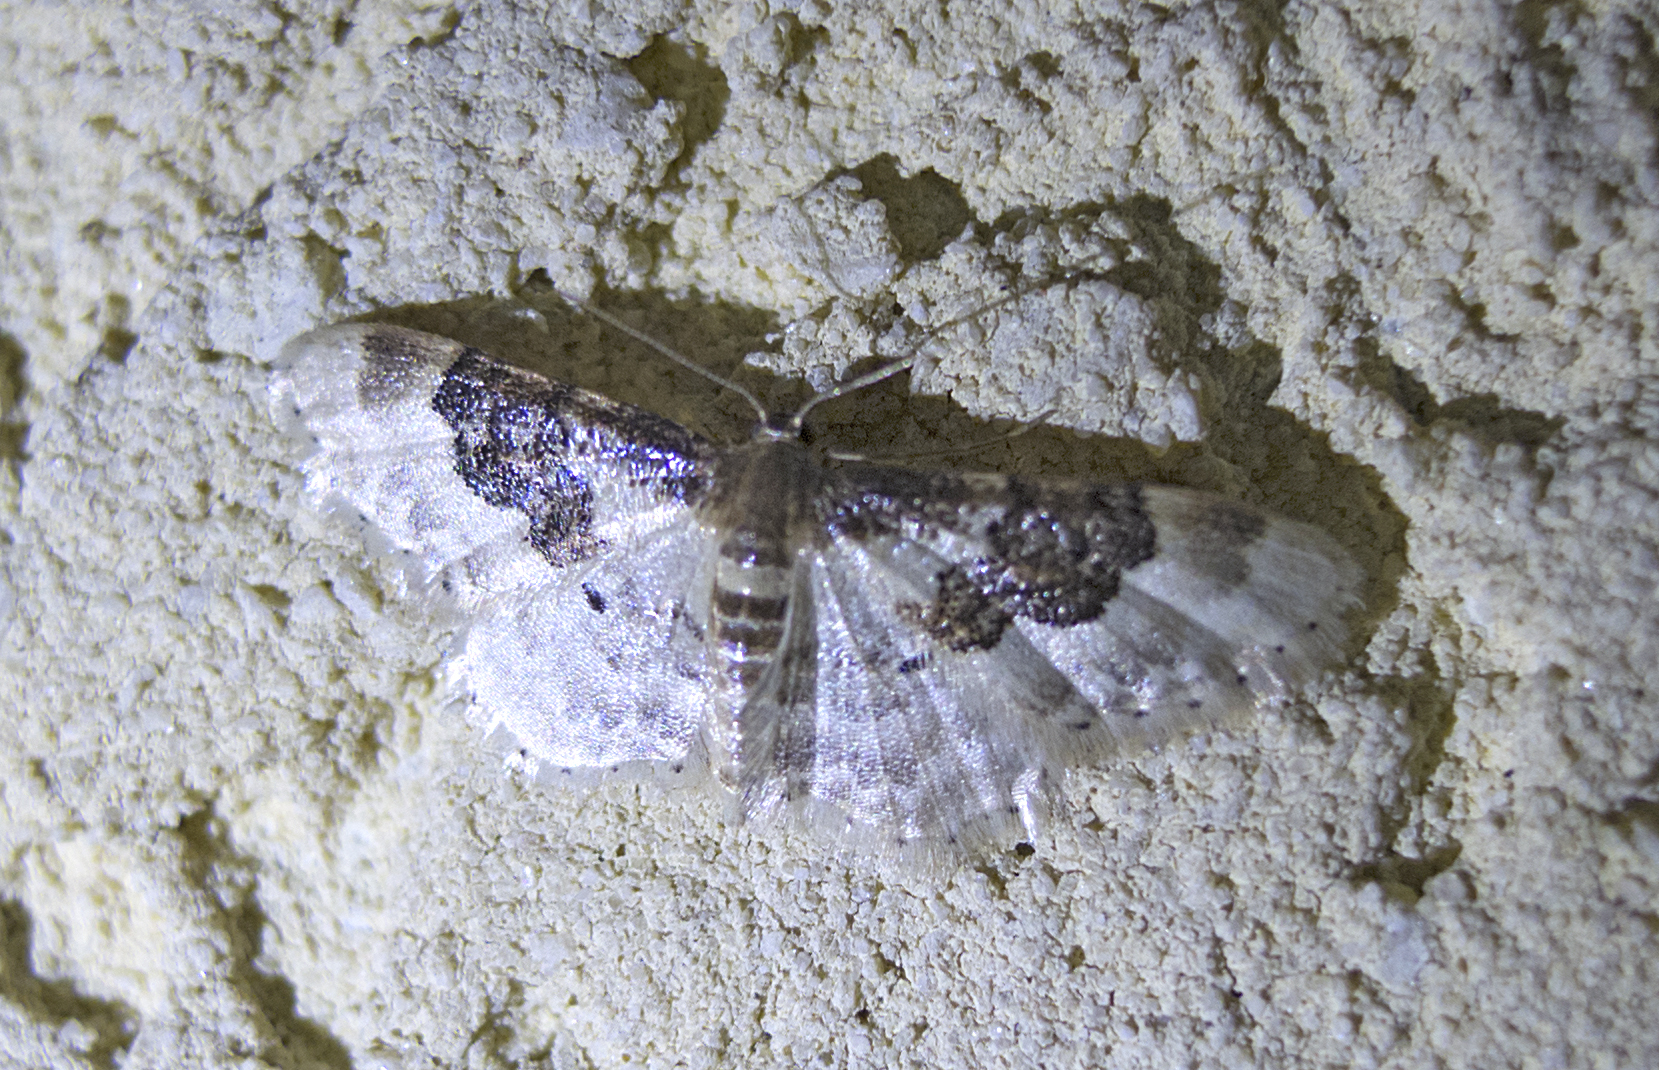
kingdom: Animalia
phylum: Arthropoda
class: Insecta
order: Lepidoptera
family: Geometridae
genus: Idaea
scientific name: Idaea rusticata
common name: Least carpet
